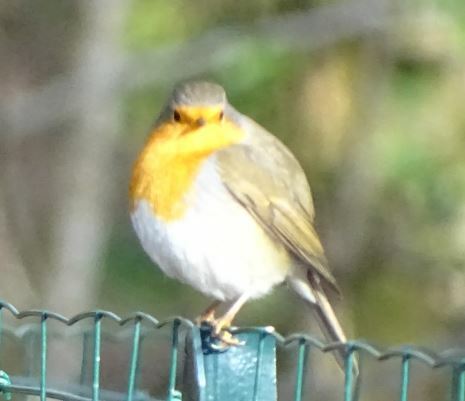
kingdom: Animalia
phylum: Chordata
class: Aves
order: Passeriformes
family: Muscicapidae
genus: Erithacus
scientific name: Erithacus rubecula
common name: European robin
